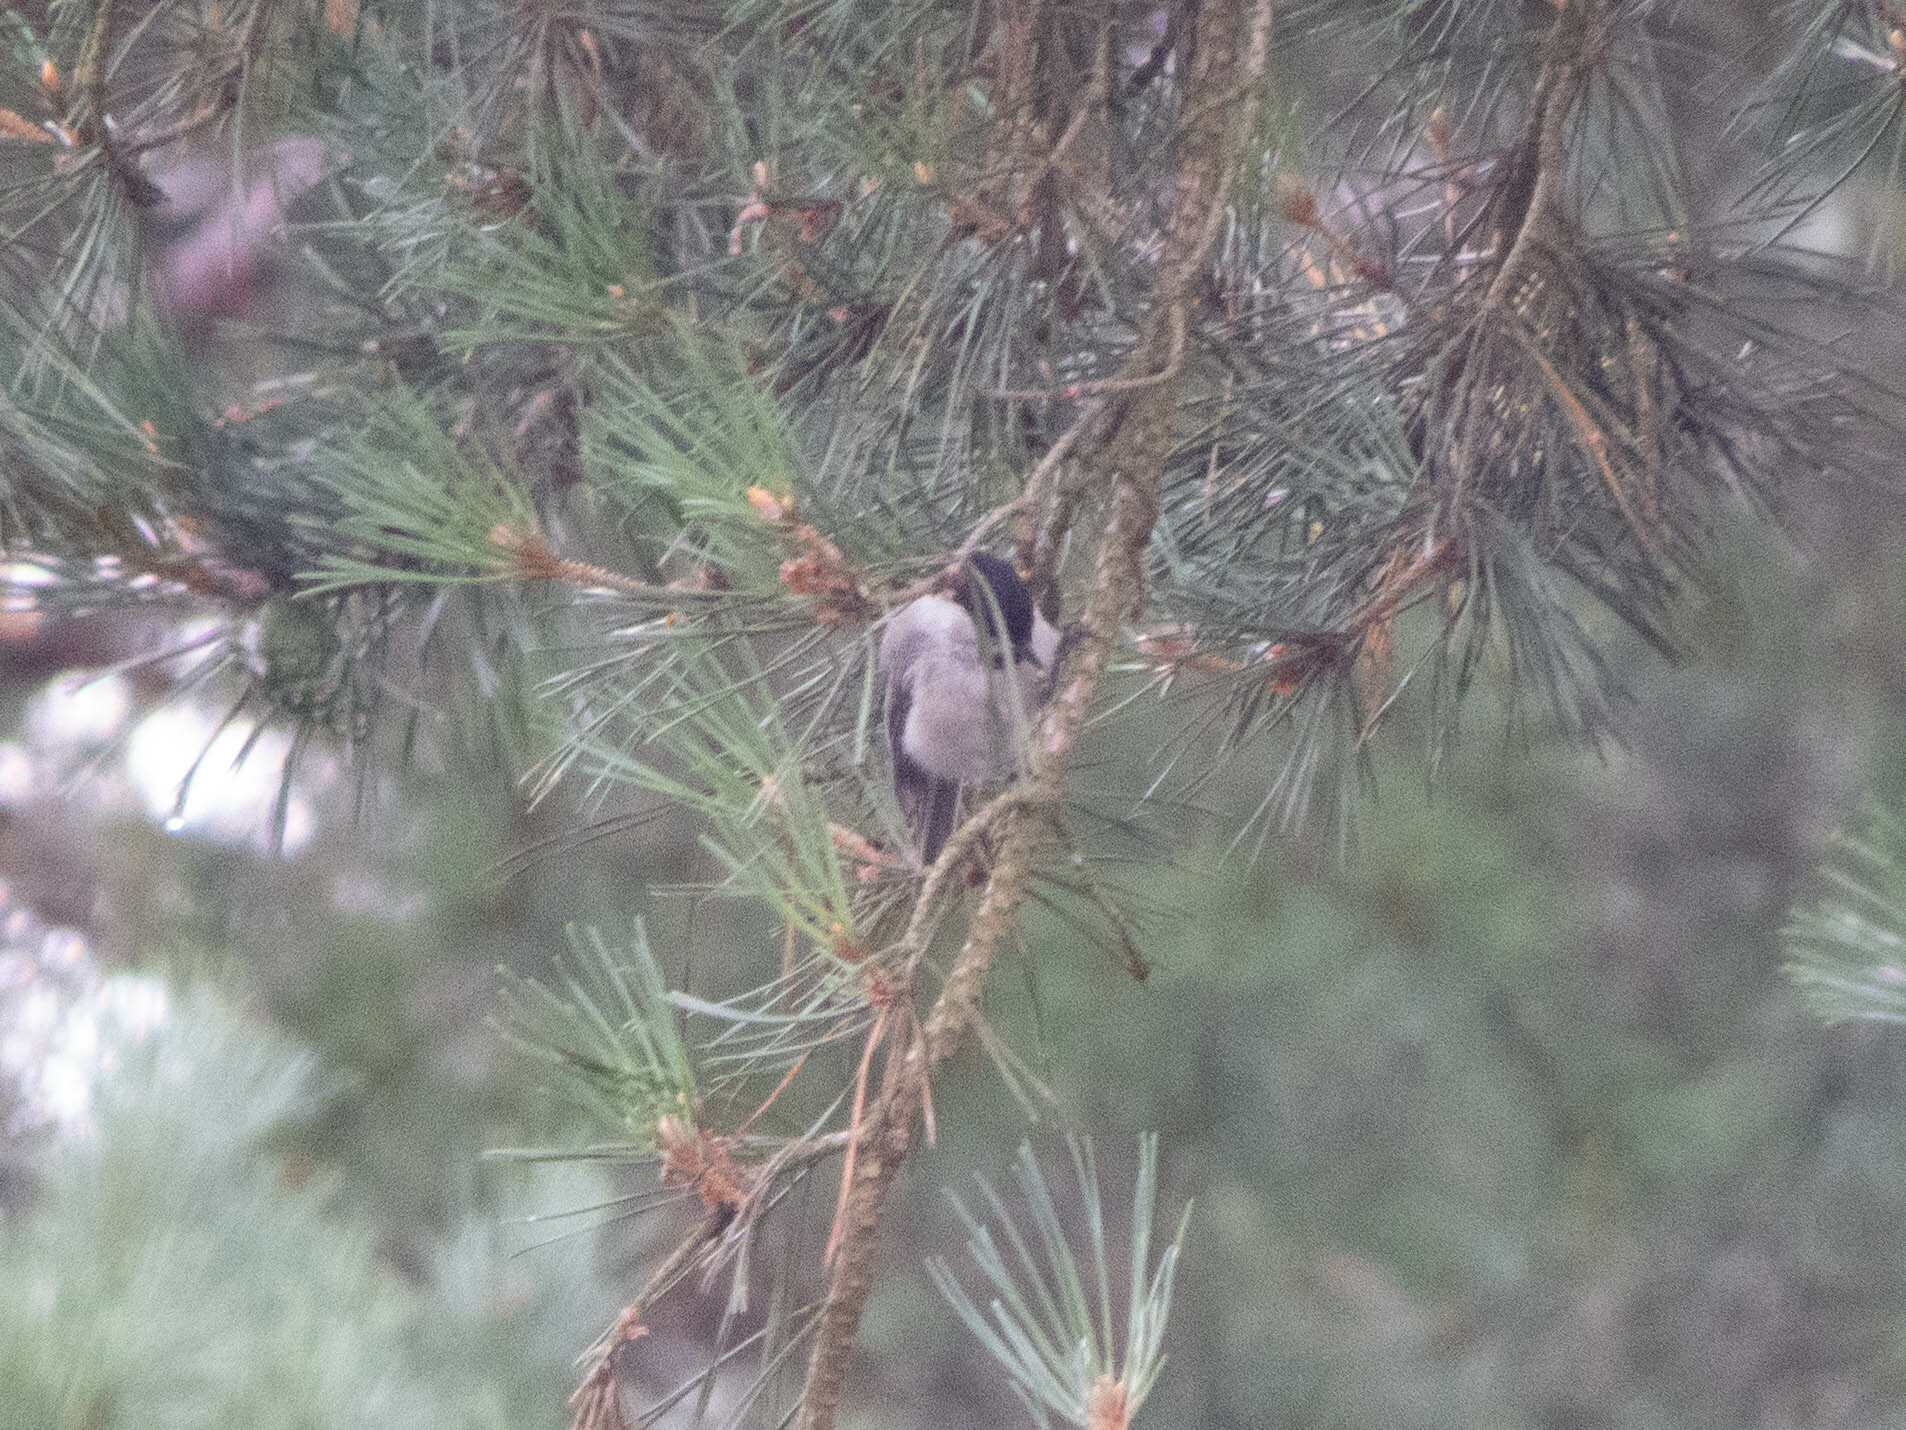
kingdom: Animalia
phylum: Chordata
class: Aves
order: Passeriformes
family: Paridae
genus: Poecile
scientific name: Poecile montanus
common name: Willow tit
